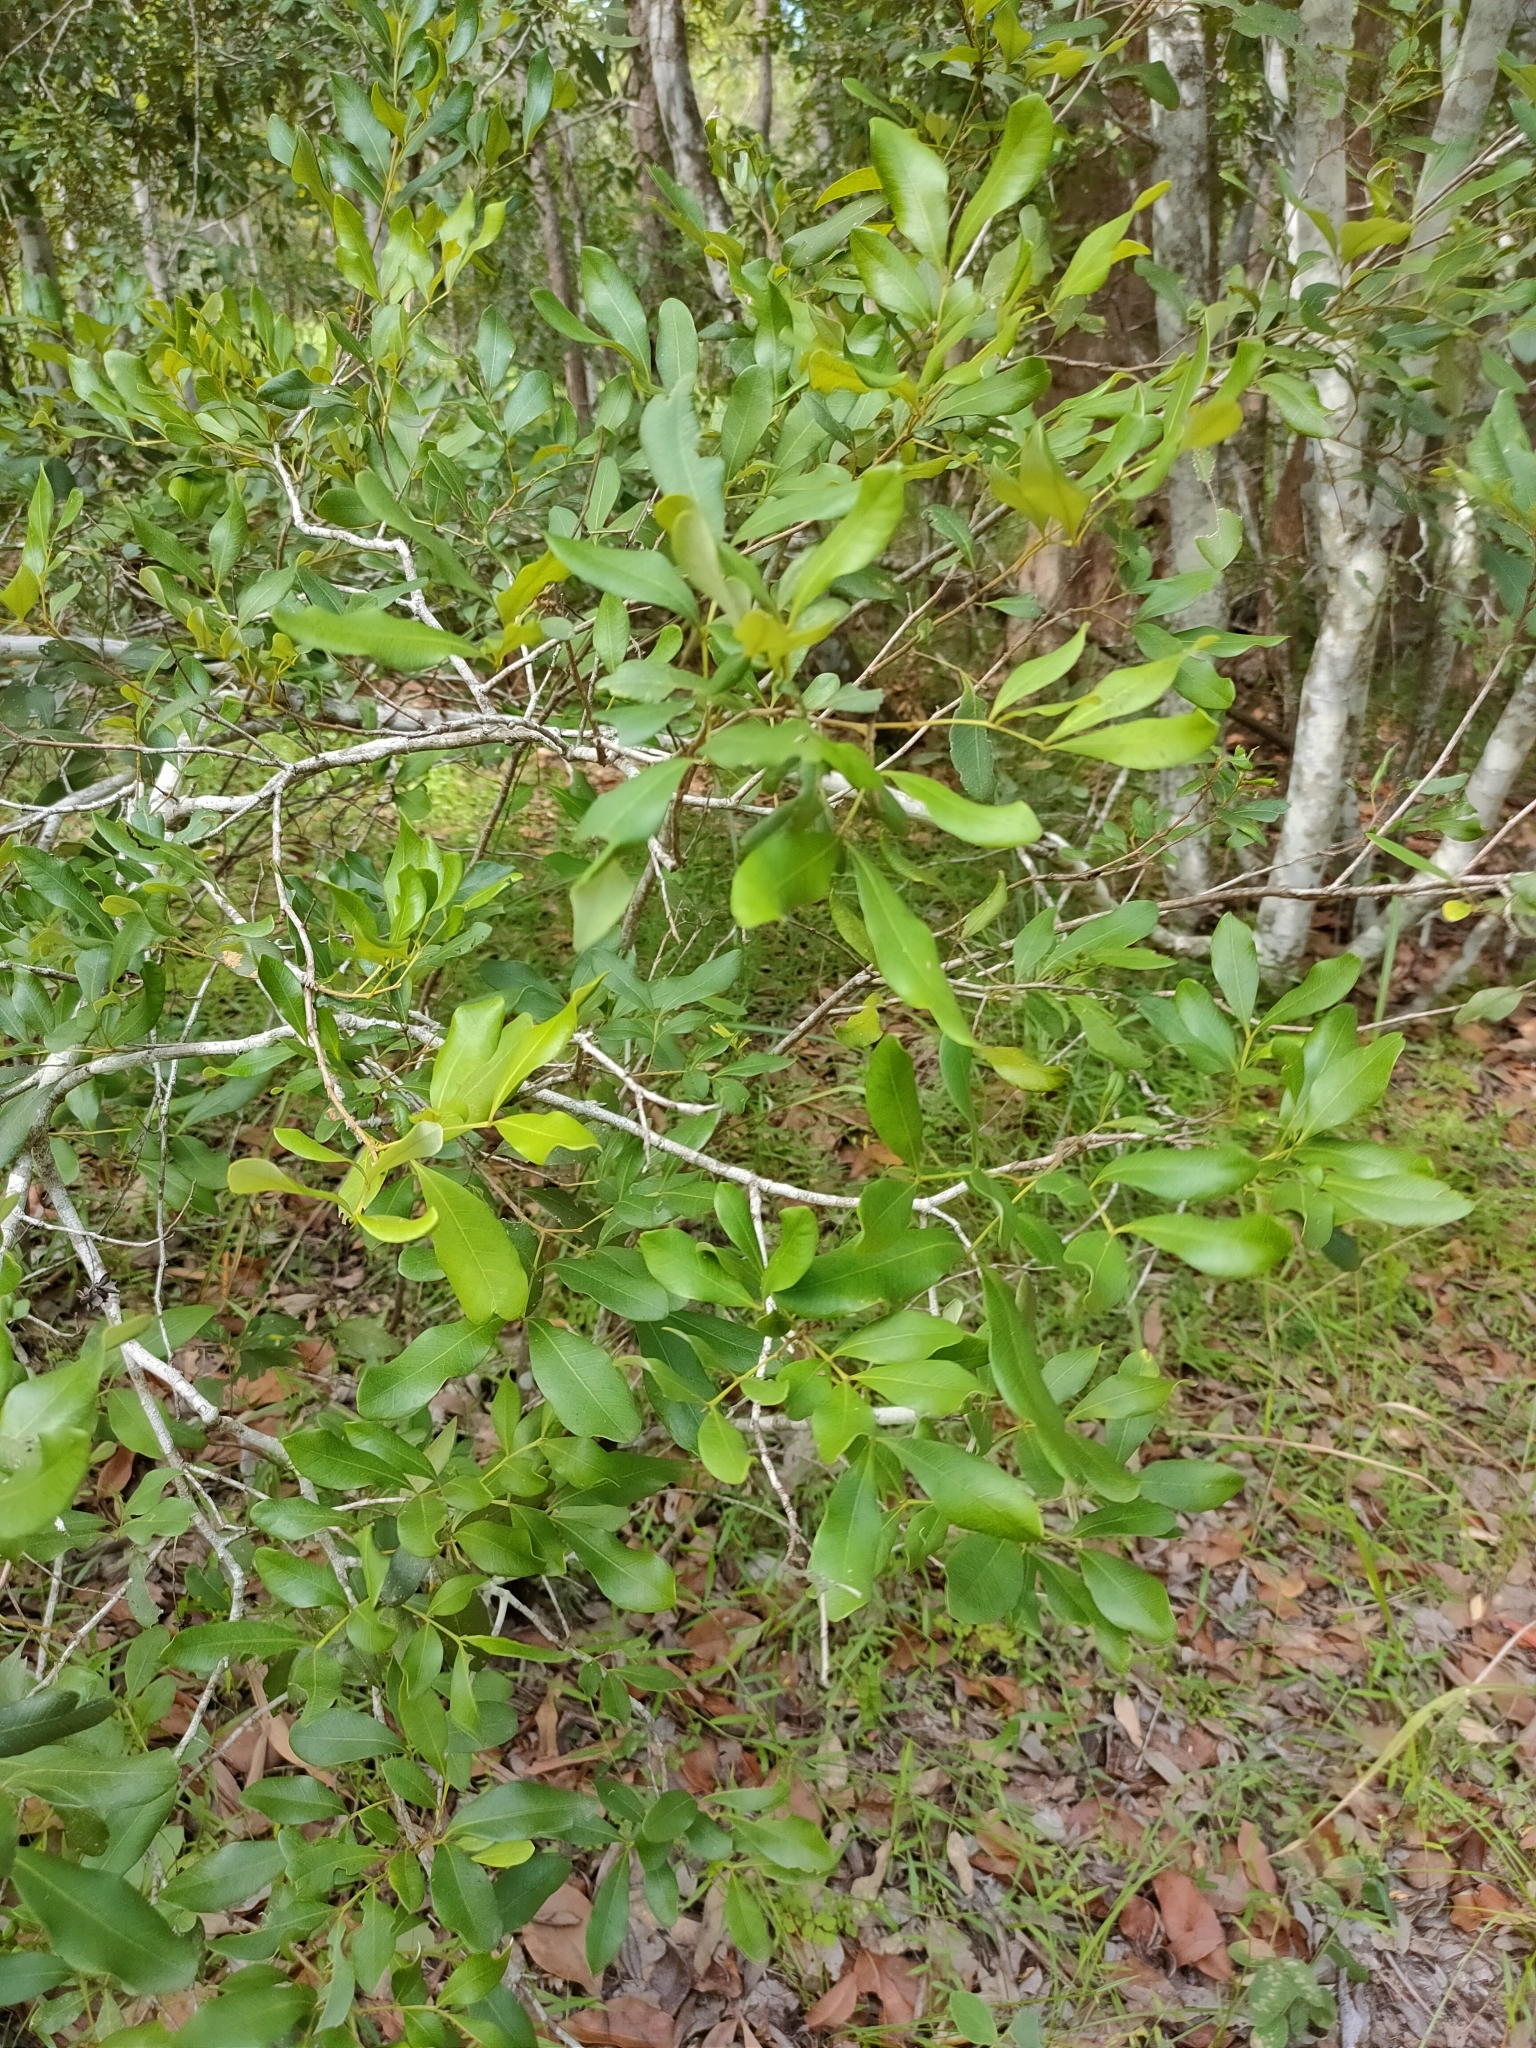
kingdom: Plantae
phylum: Tracheophyta
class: Magnoliopsida
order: Sapindales
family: Sapindaceae
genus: Guioa
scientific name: Guioa semiglauca
